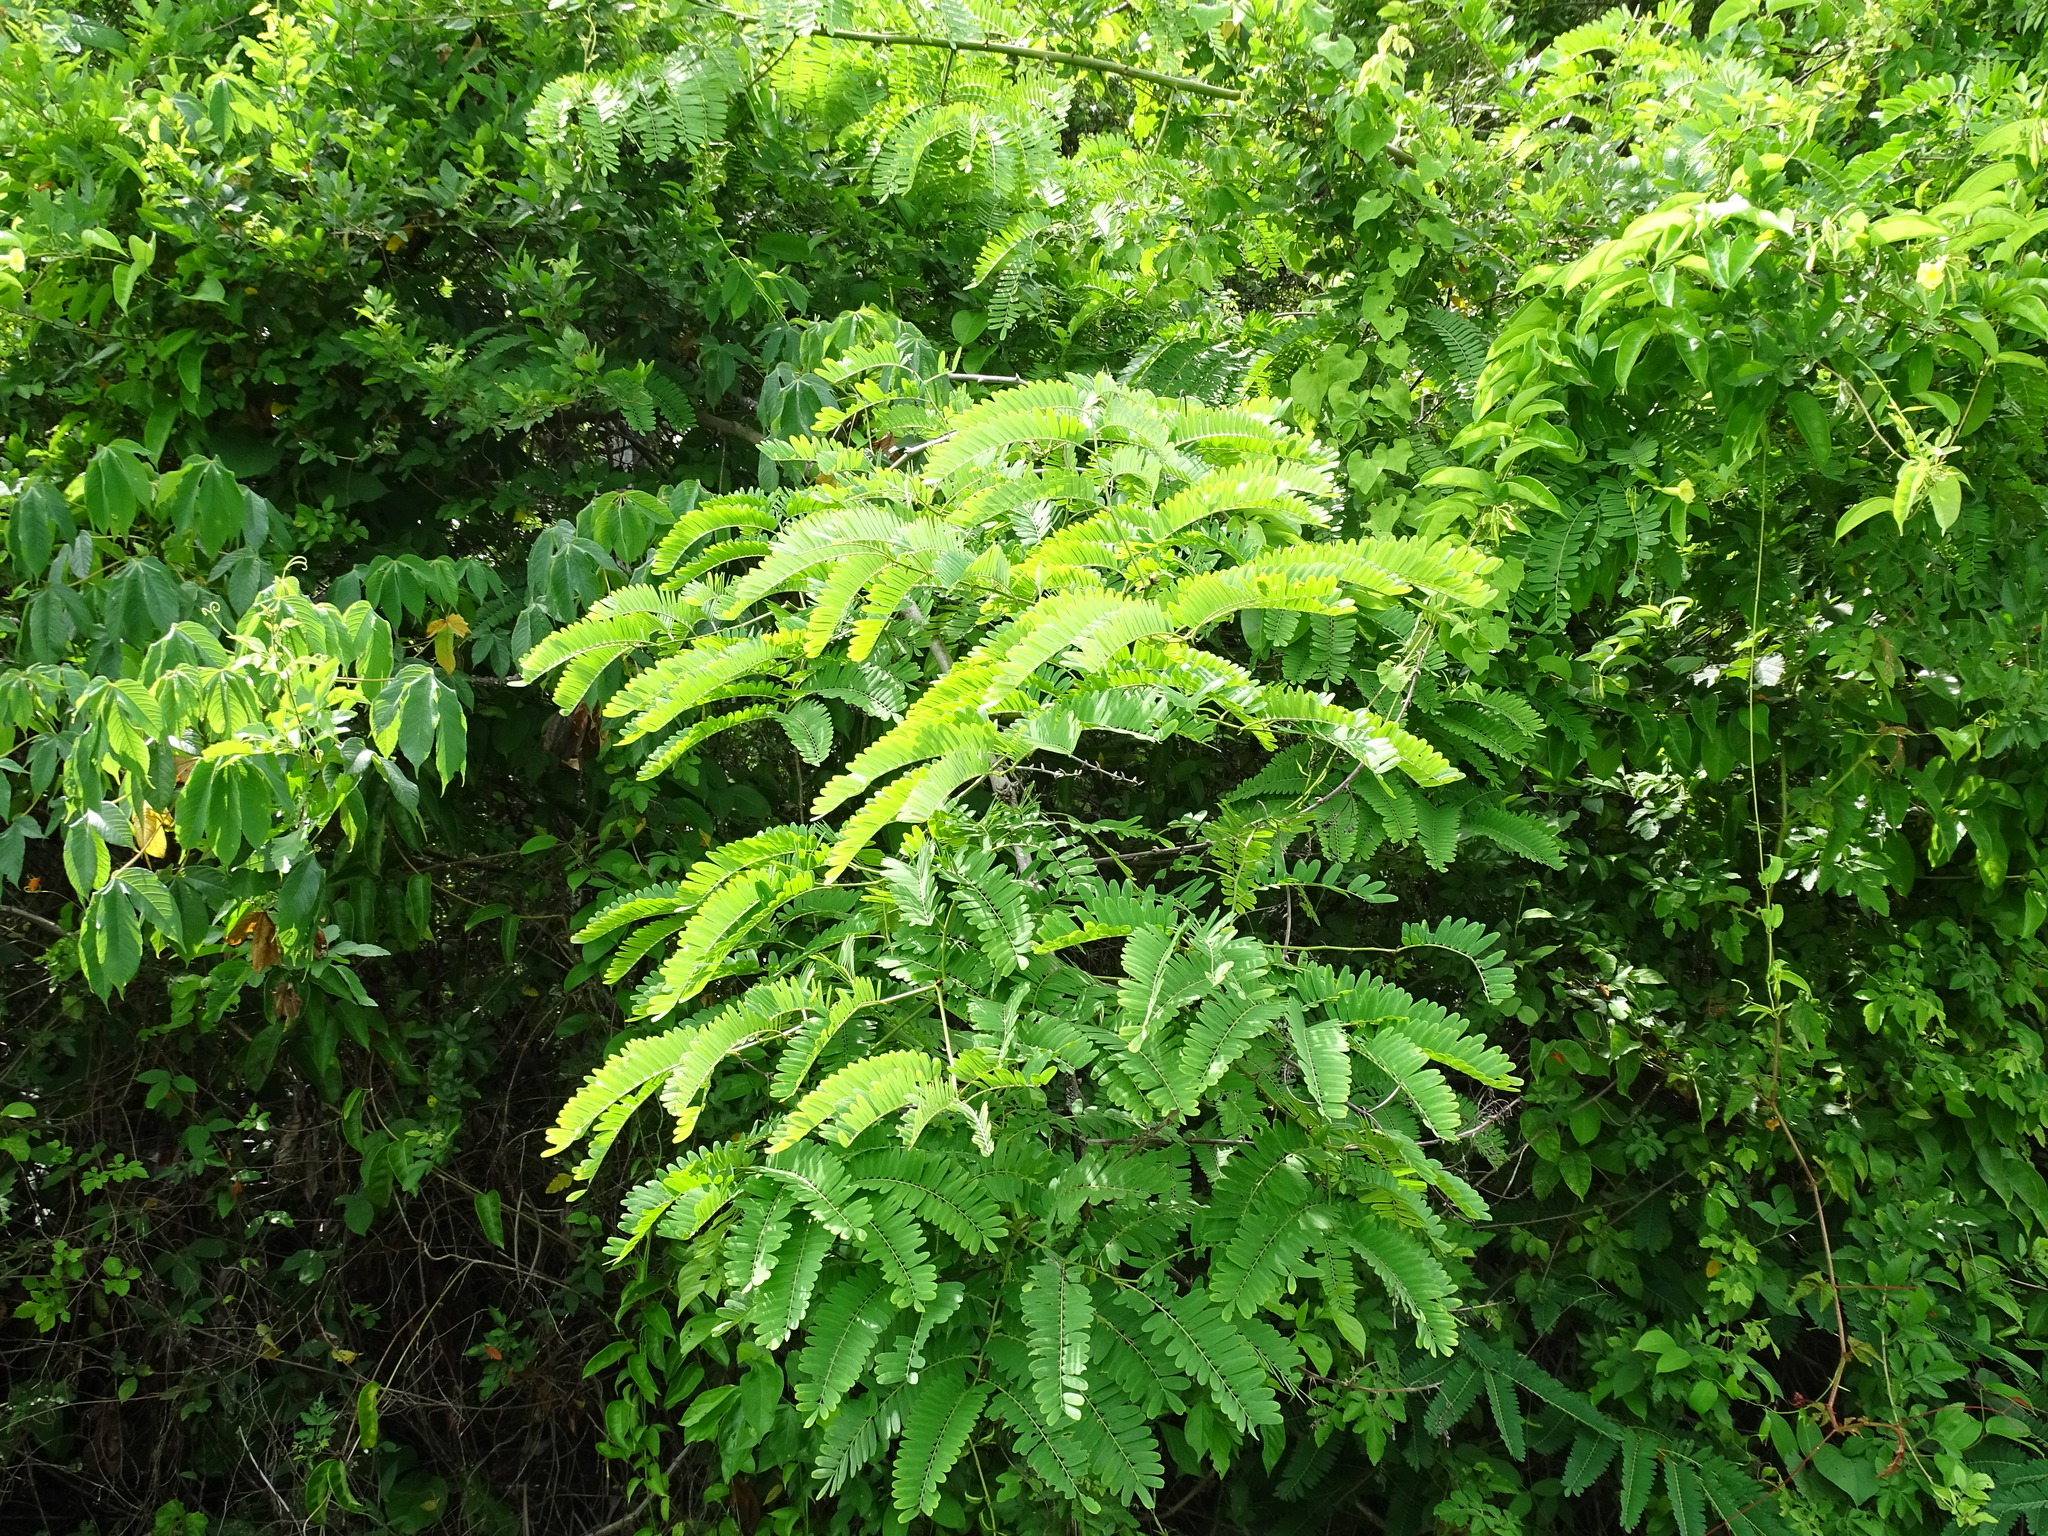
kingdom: Plantae
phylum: Tracheophyta
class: Magnoliopsida
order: Fabales
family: Fabaceae
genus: Machaerium
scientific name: Machaerium isadelphum
